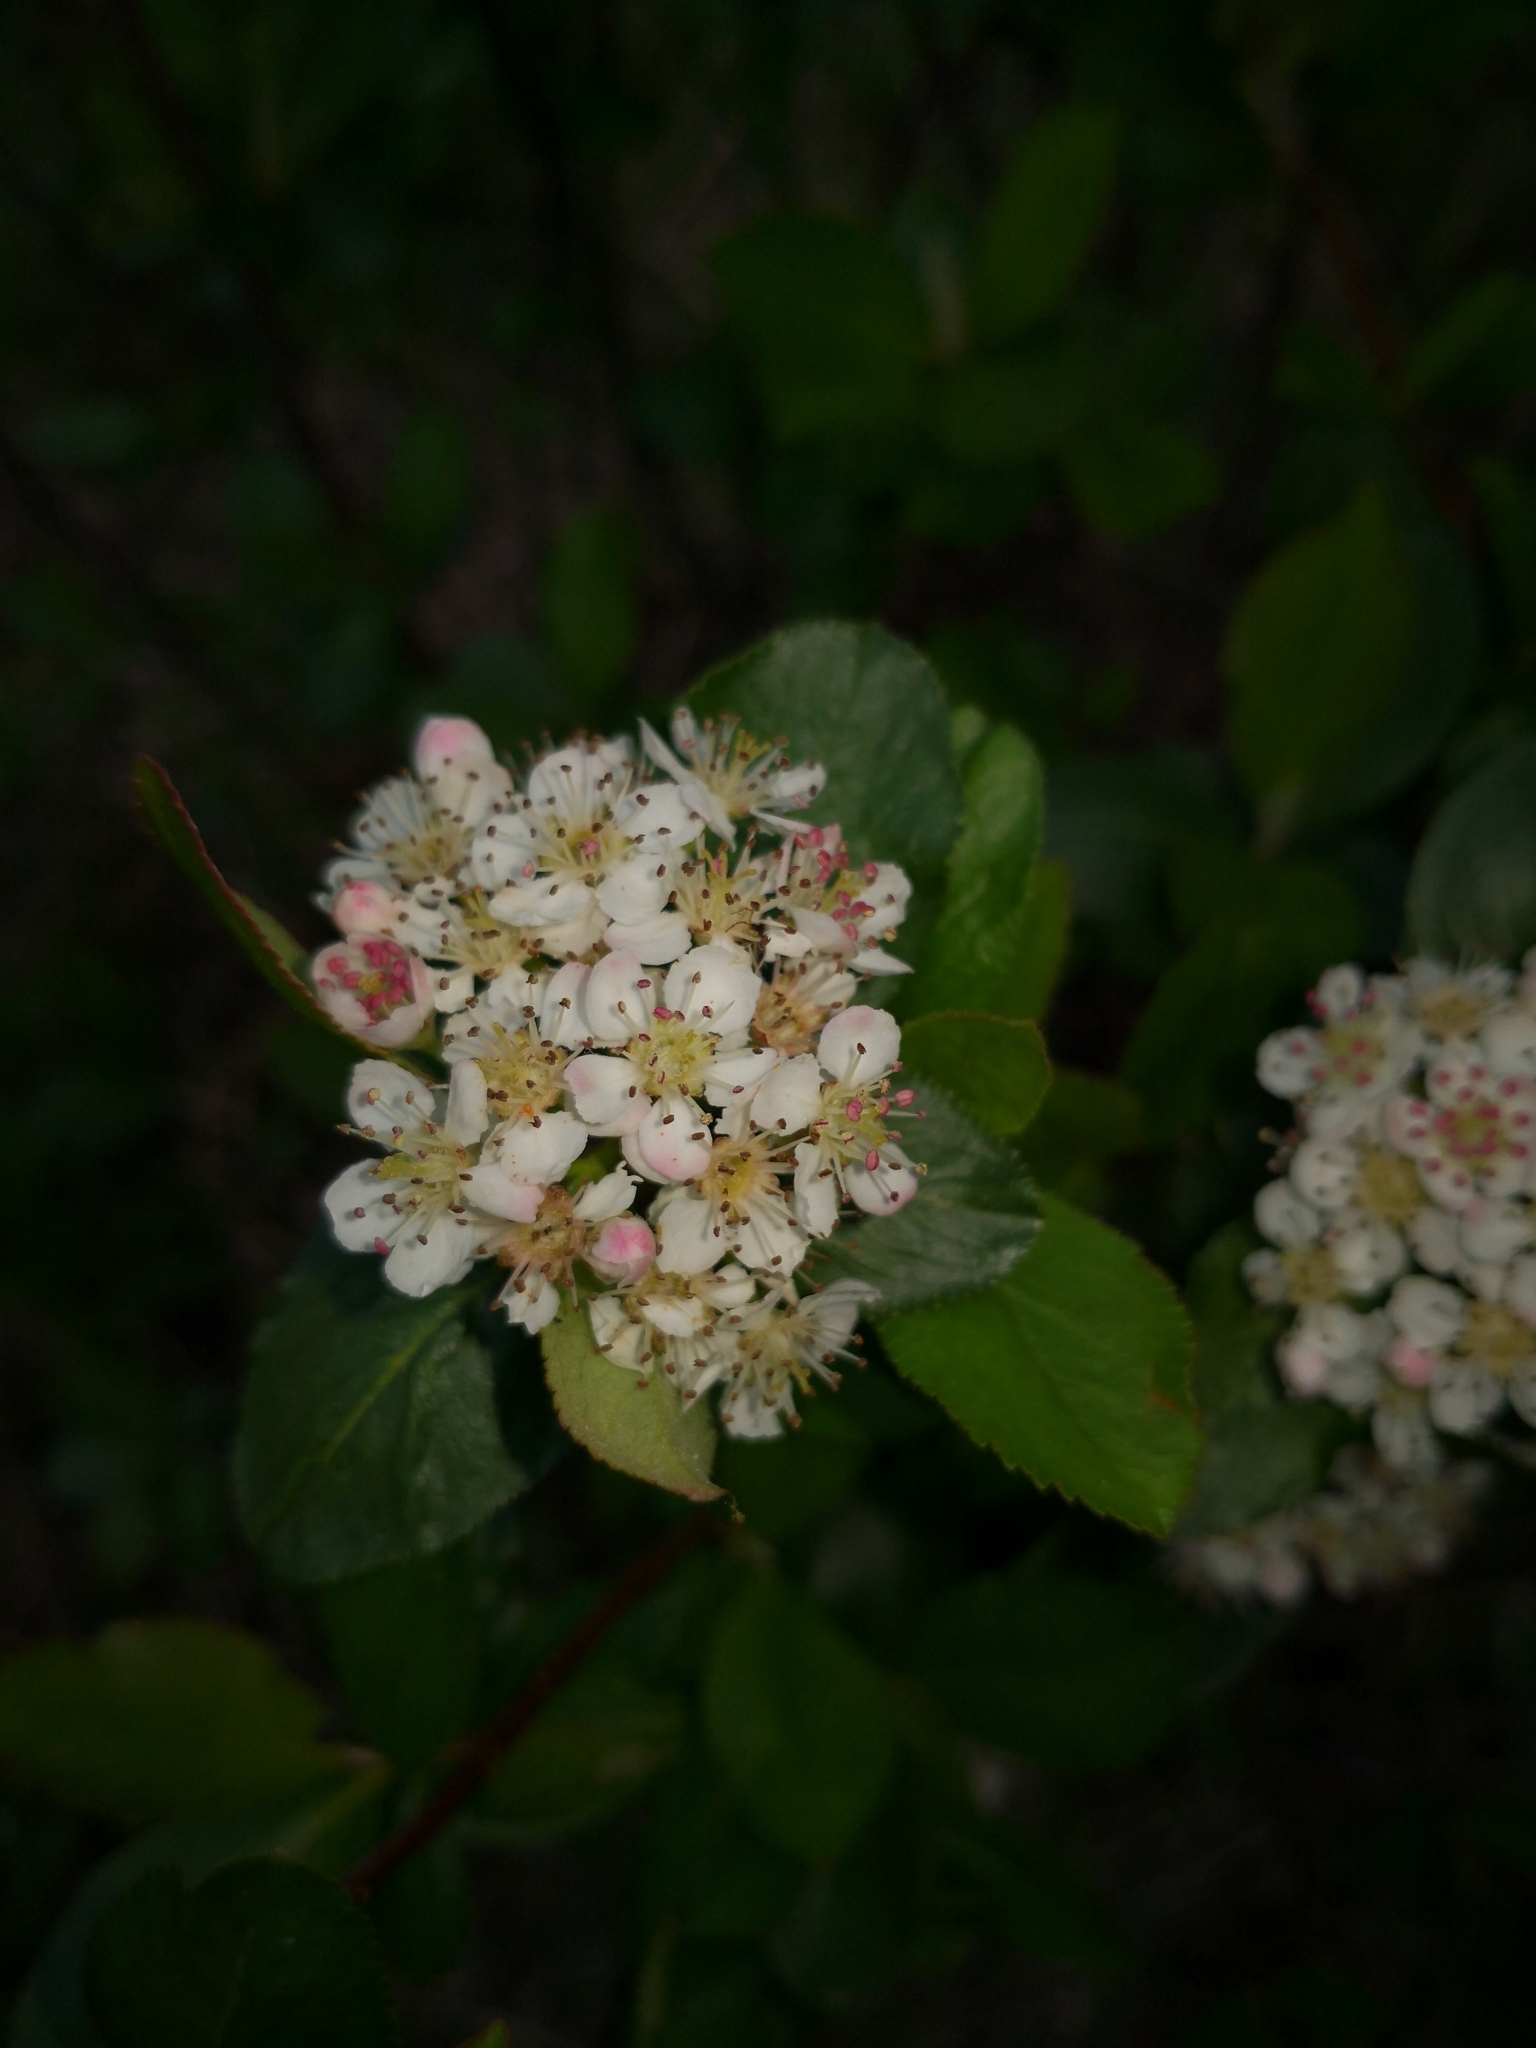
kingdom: Plantae
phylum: Tracheophyta
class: Magnoliopsida
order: Rosales
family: Rosaceae
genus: Sorbaronia
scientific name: Sorbaronia arsenii
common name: Arsène's mountain-ash
